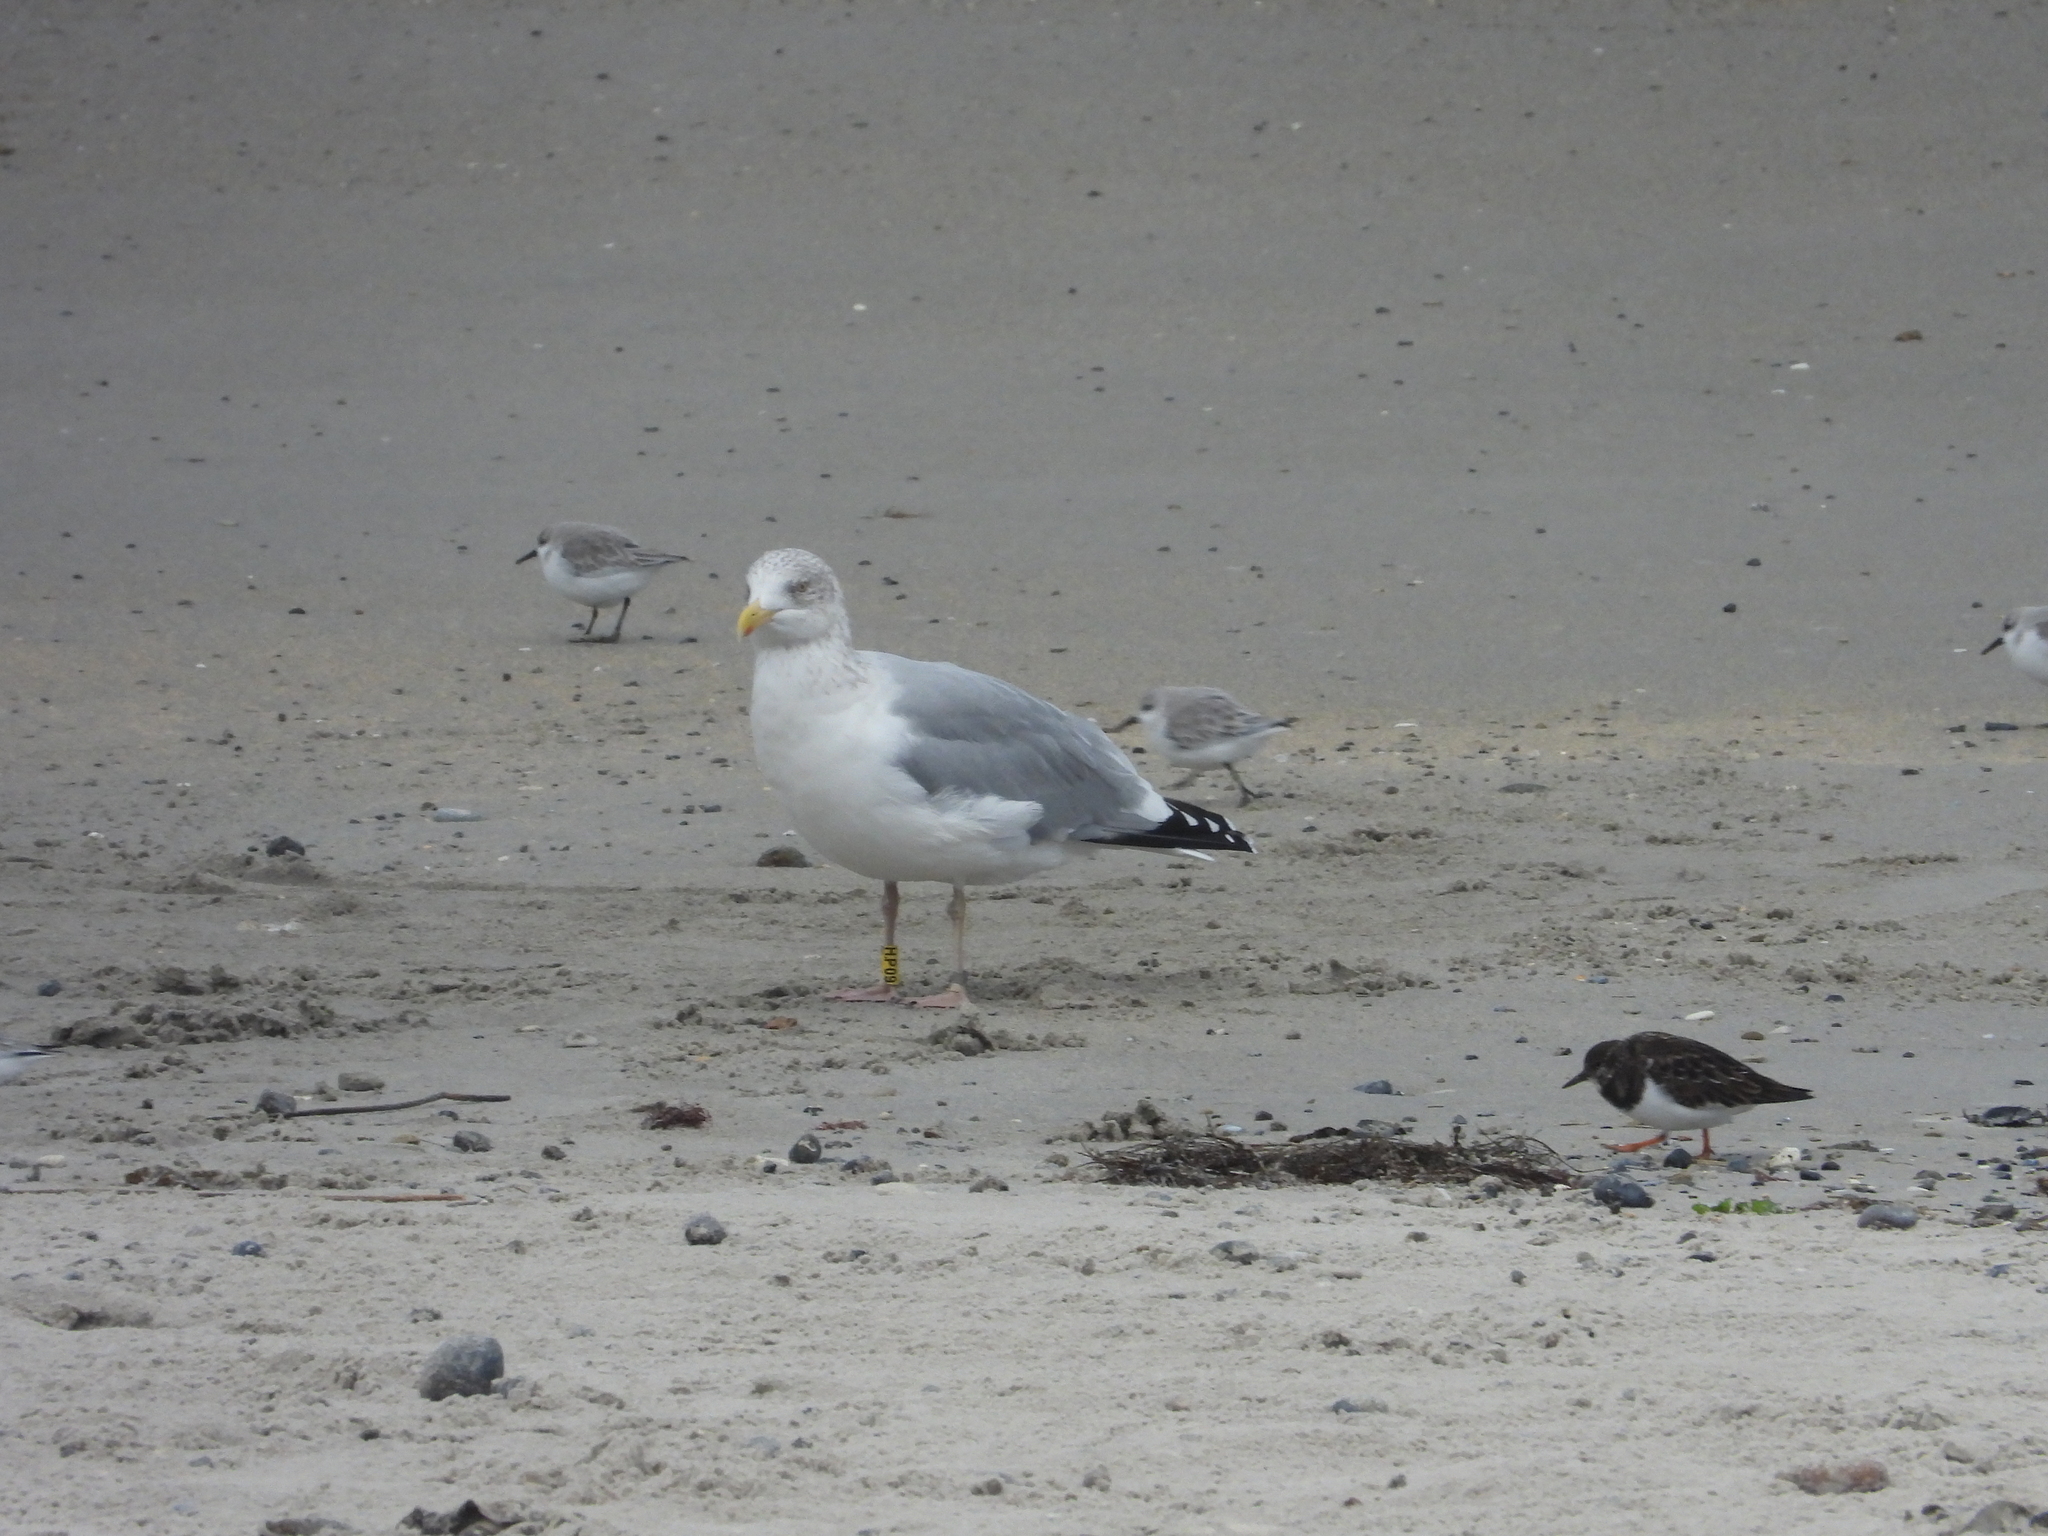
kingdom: Animalia
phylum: Chordata
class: Aves
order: Charadriiformes
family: Laridae
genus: Larus
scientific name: Larus argentatus
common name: Herring gull
